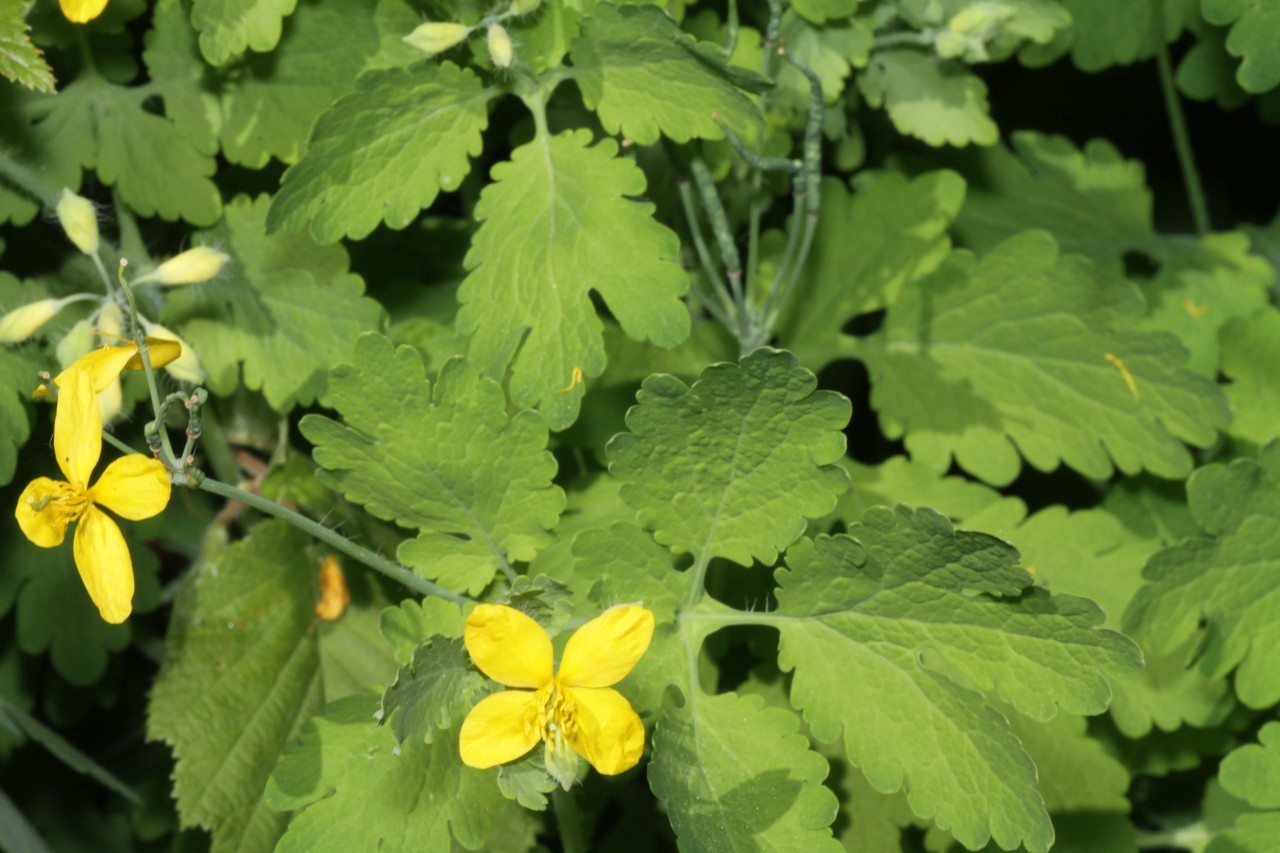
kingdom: Plantae
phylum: Tracheophyta
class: Magnoliopsida
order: Ranunculales
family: Papaveraceae
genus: Chelidonium
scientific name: Chelidonium majus
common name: Greater celandine
